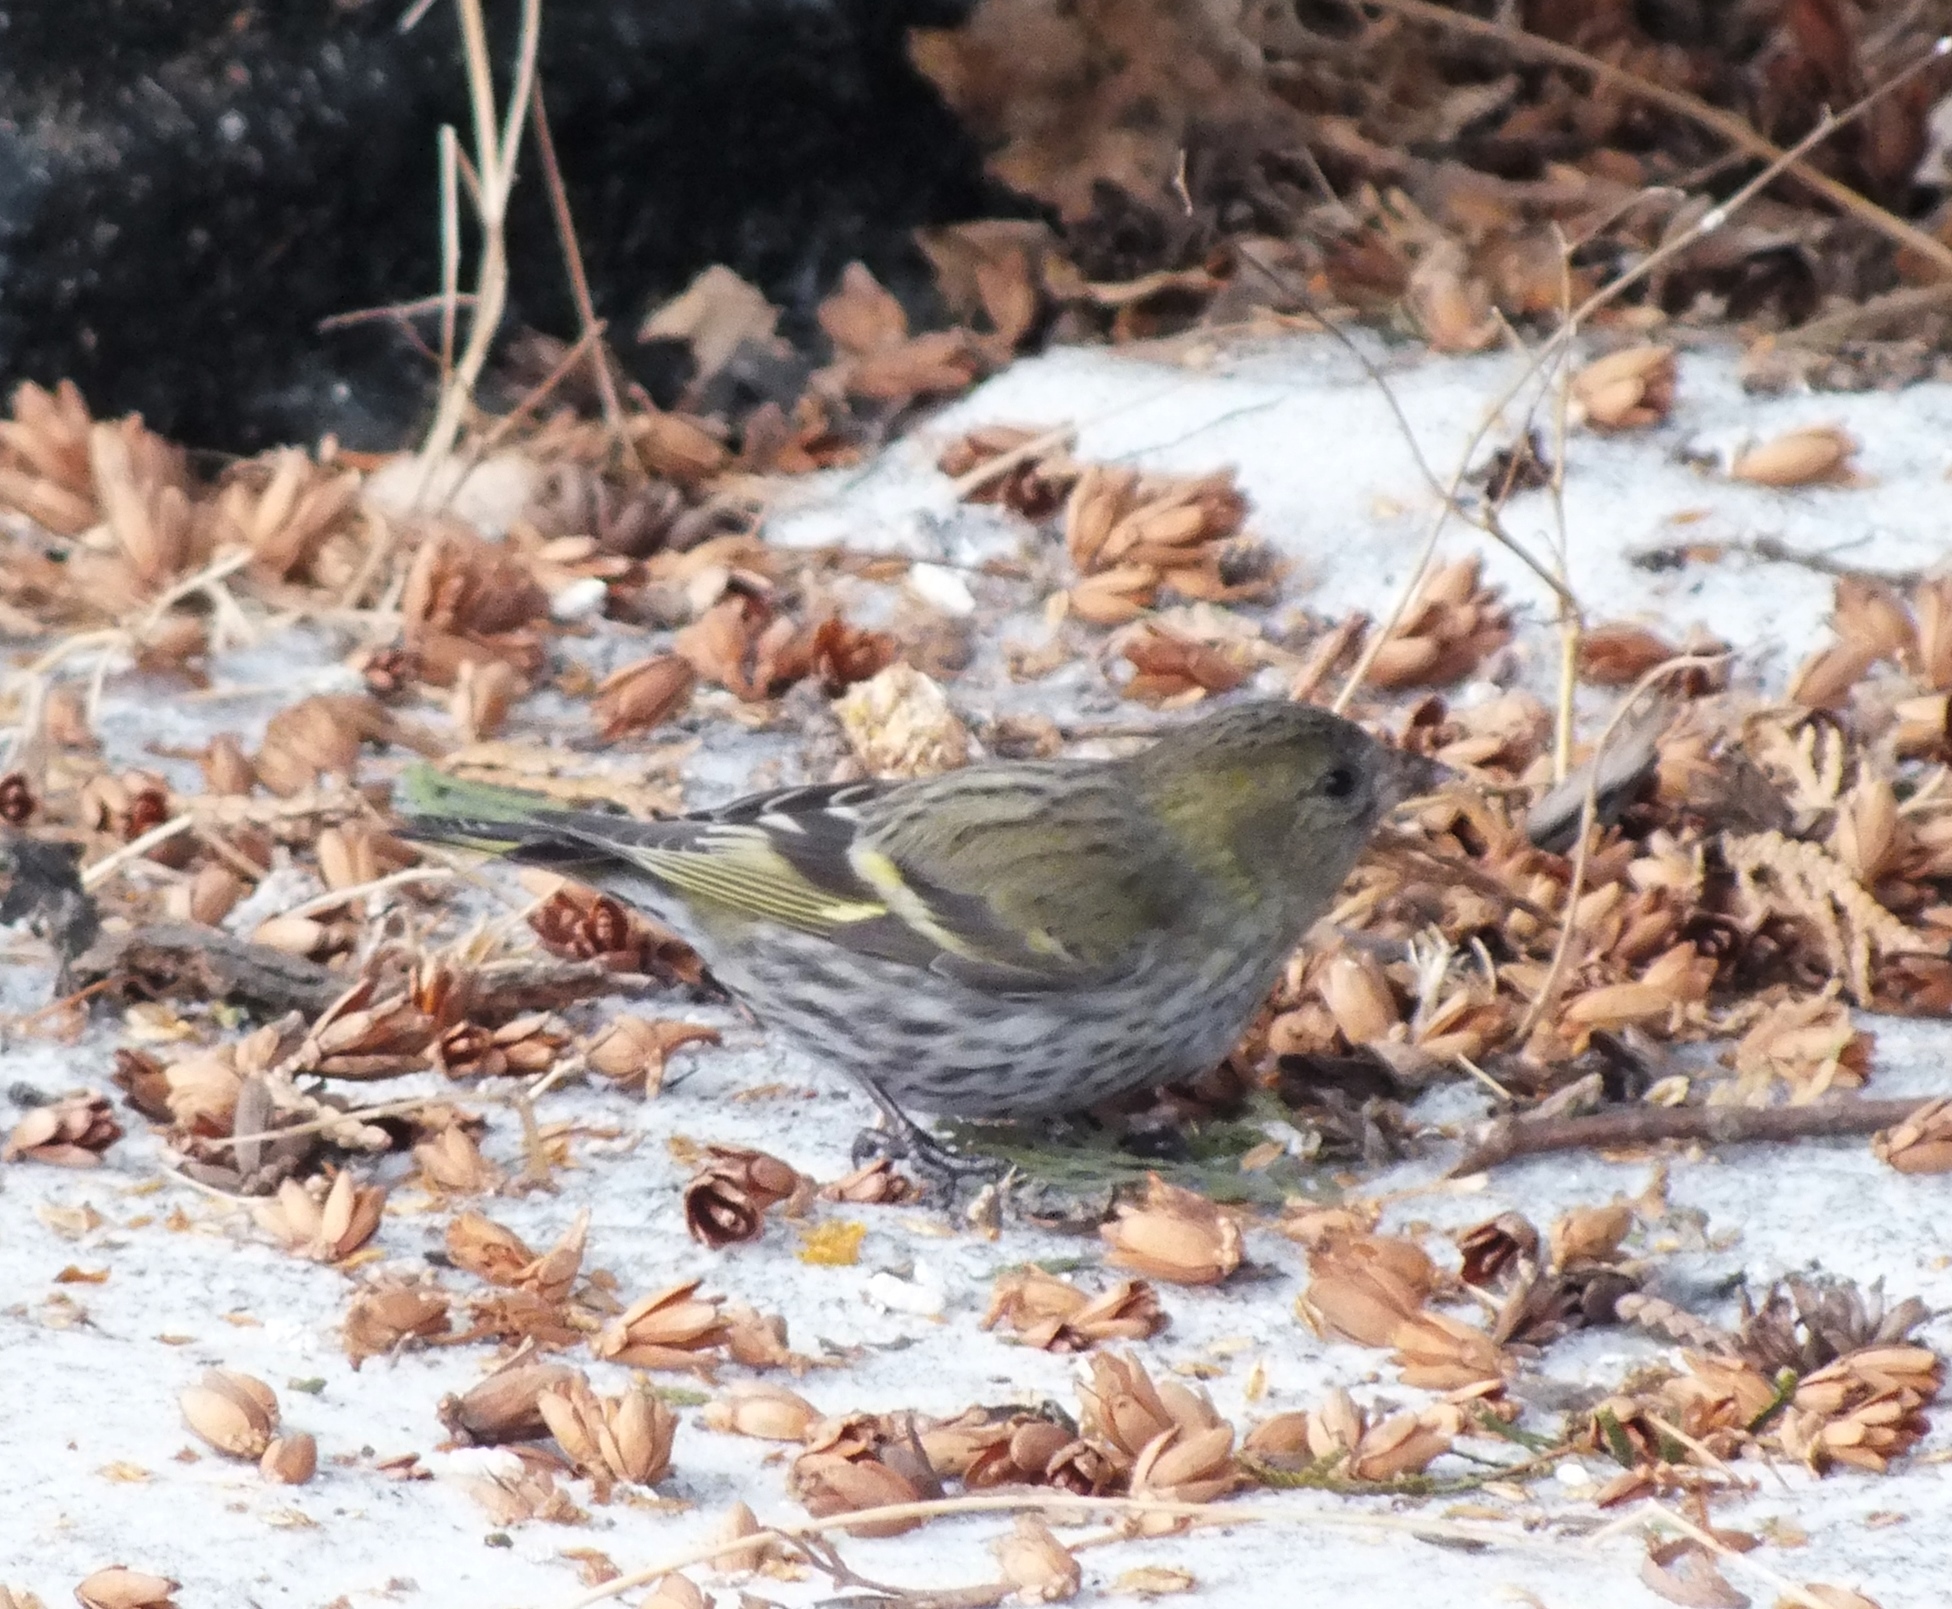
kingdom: Animalia
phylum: Chordata
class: Aves
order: Passeriformes
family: Fringillidae
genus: Spinus
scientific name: Spinus spinus
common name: Eurasian siskin
